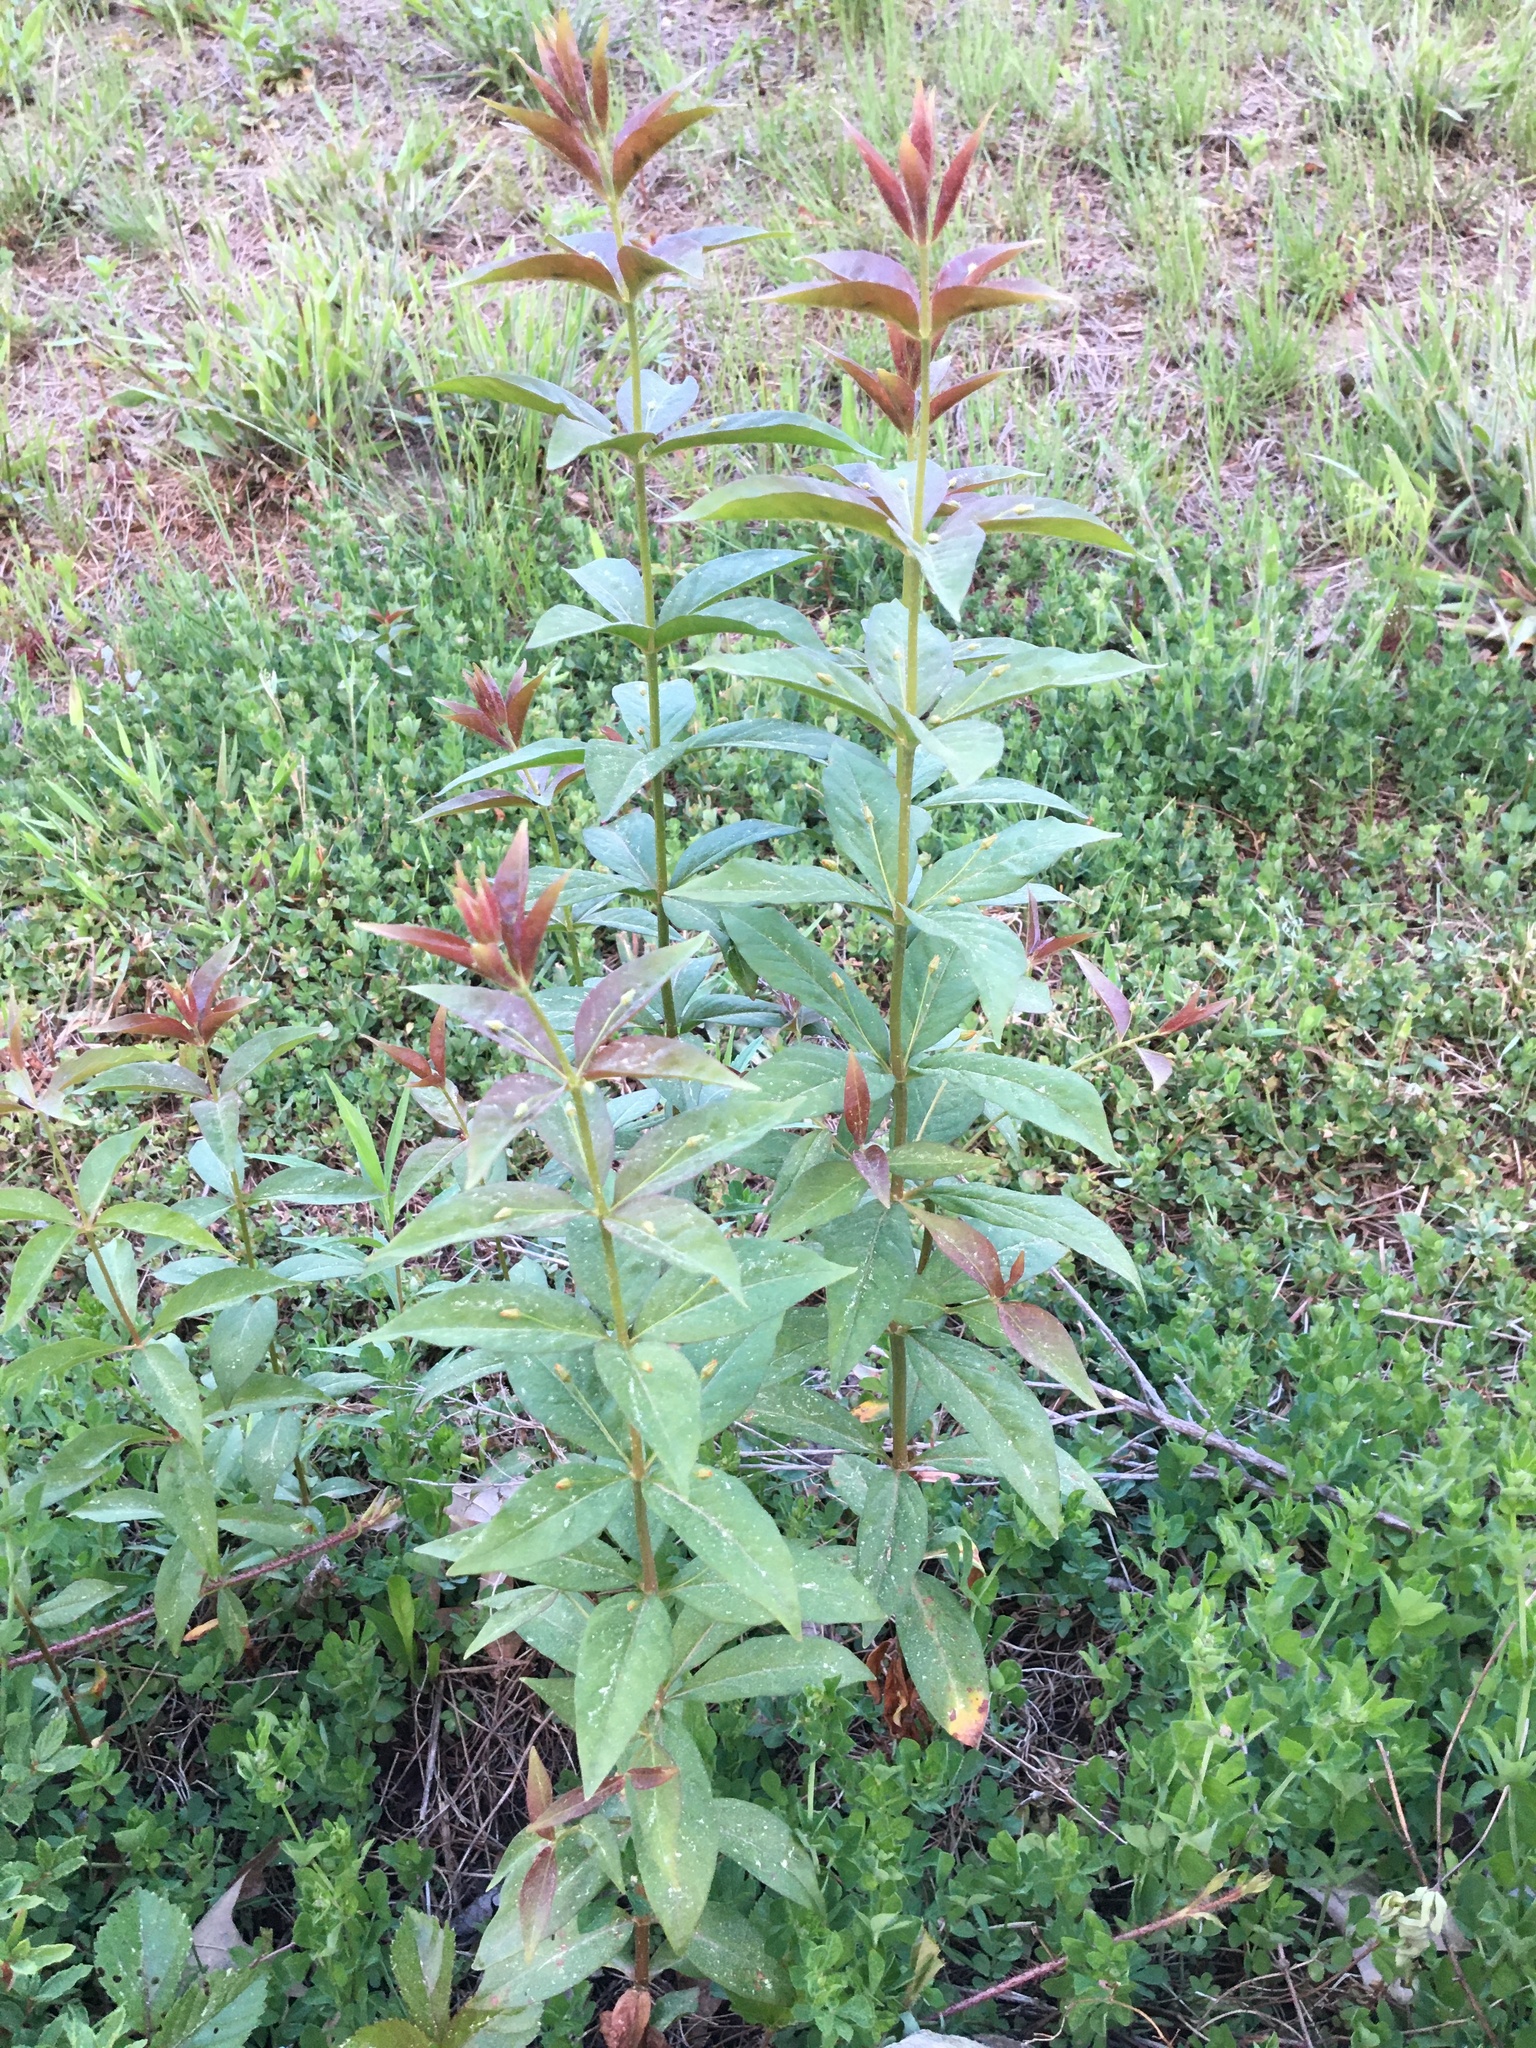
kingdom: Plantae
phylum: Tracheophyta
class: Magnoliopsida
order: Ericales
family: Primulaceae
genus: Lysimachia
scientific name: Lysimachia quadrifolia
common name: Whorled loosestrife
